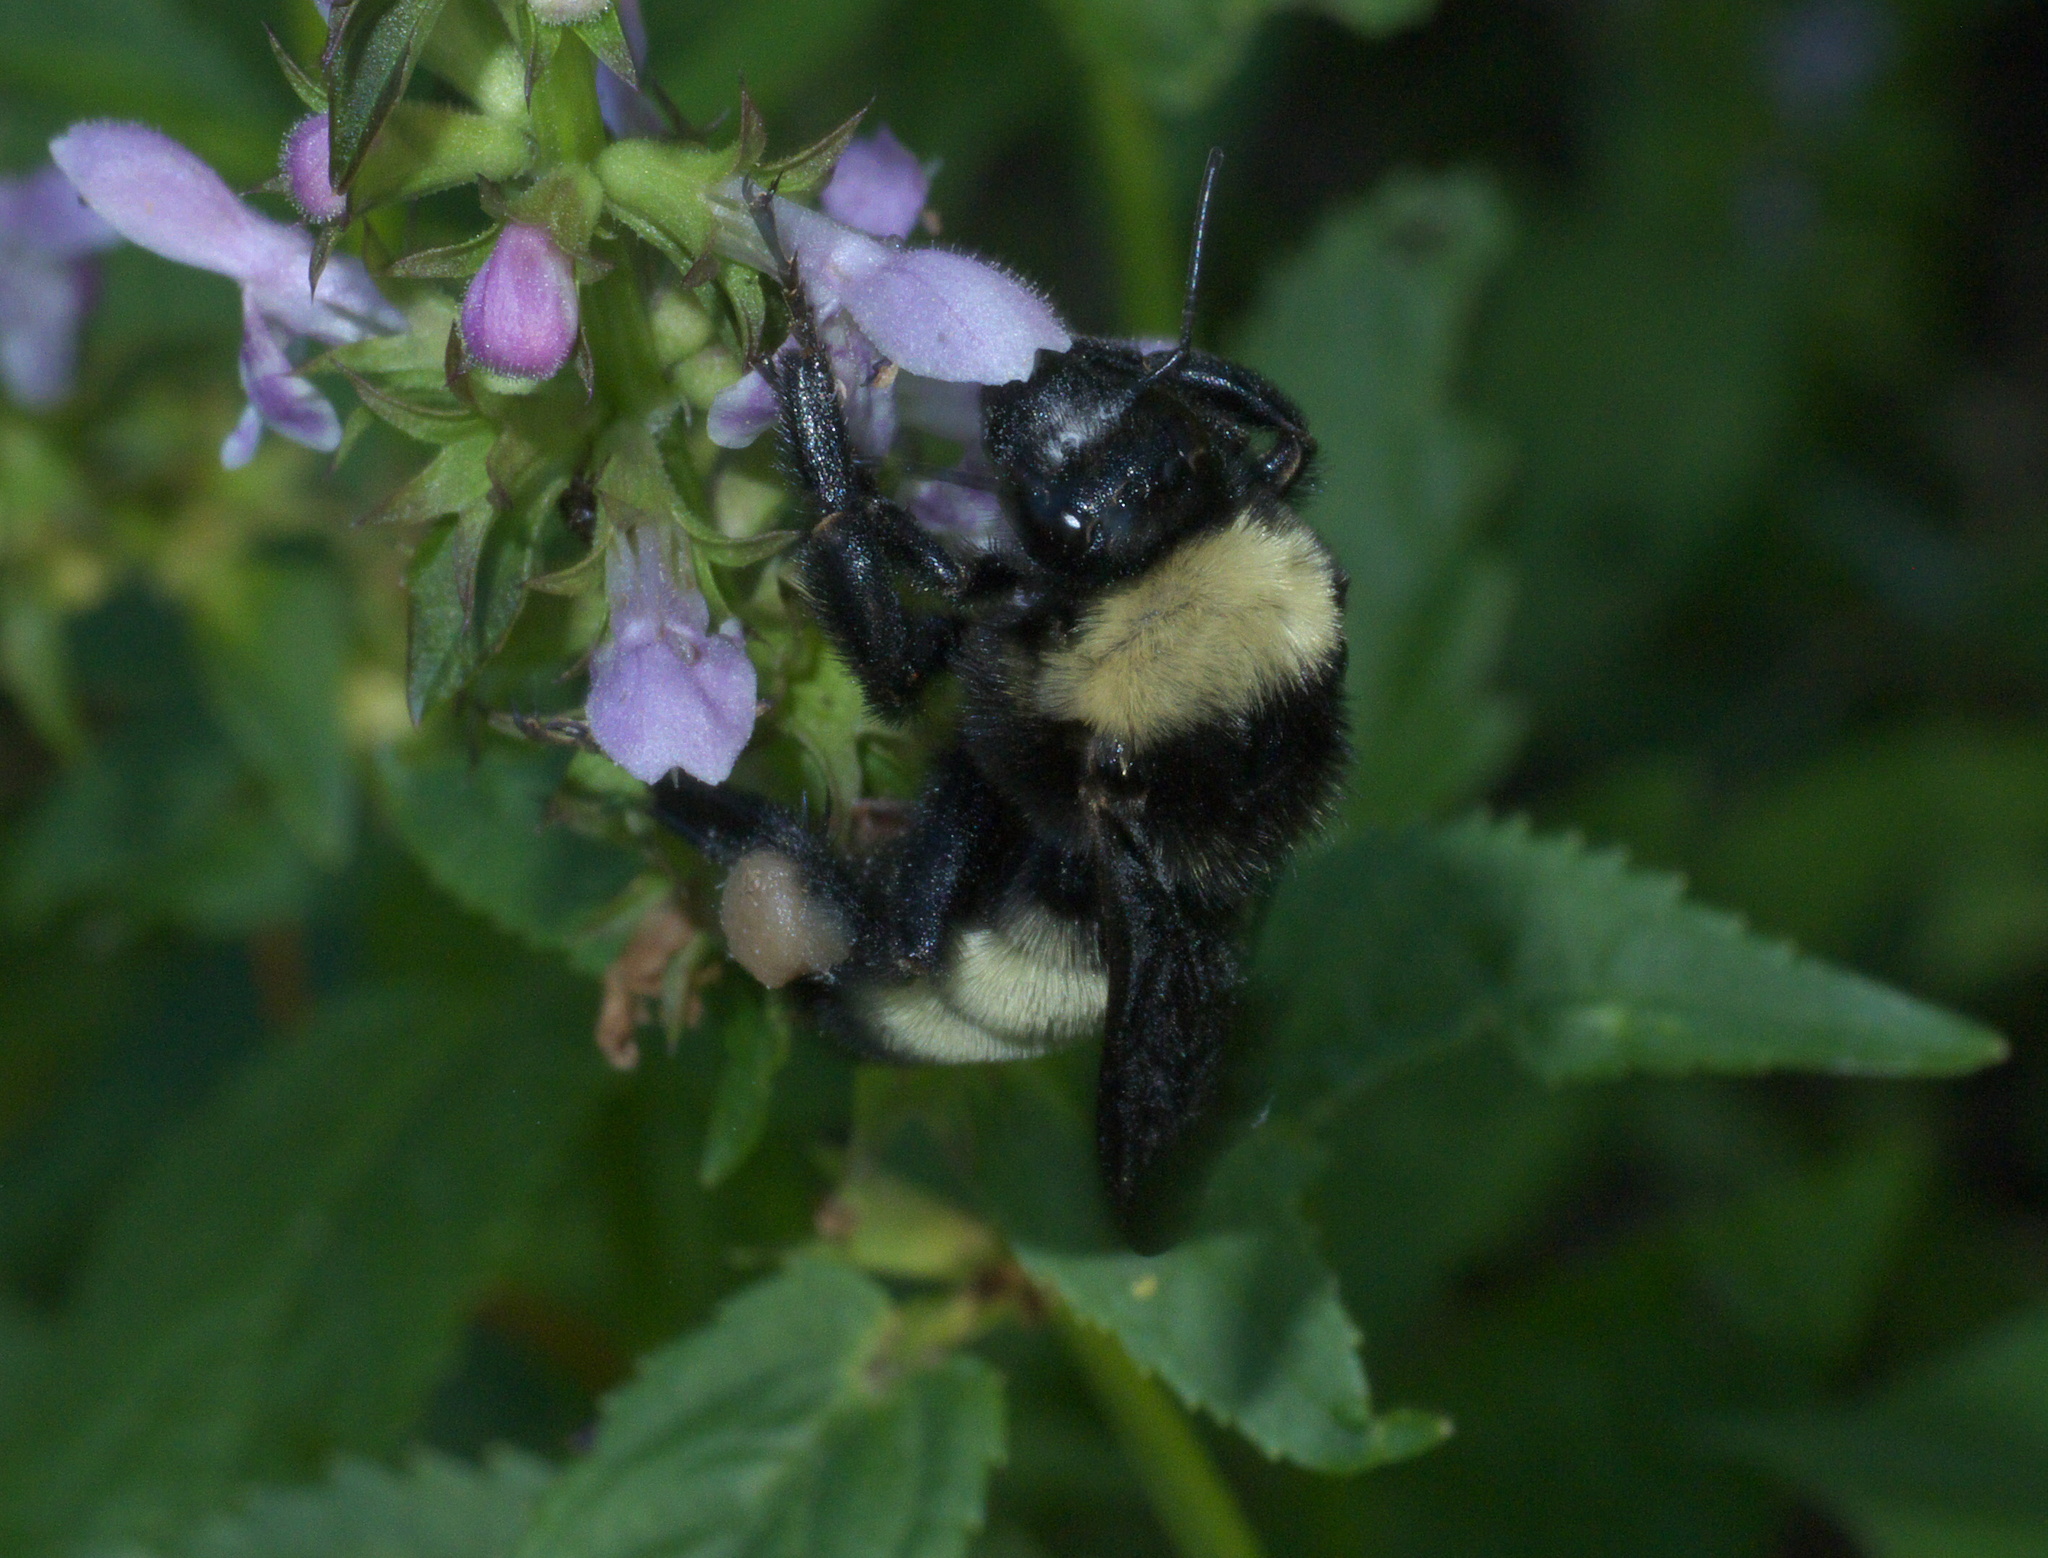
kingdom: Animalia
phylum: Arthropoda
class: Insecta
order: Hymenoptera
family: Apidae
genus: Bombus
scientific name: Bombus pensylvanicus
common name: Bumble bee
